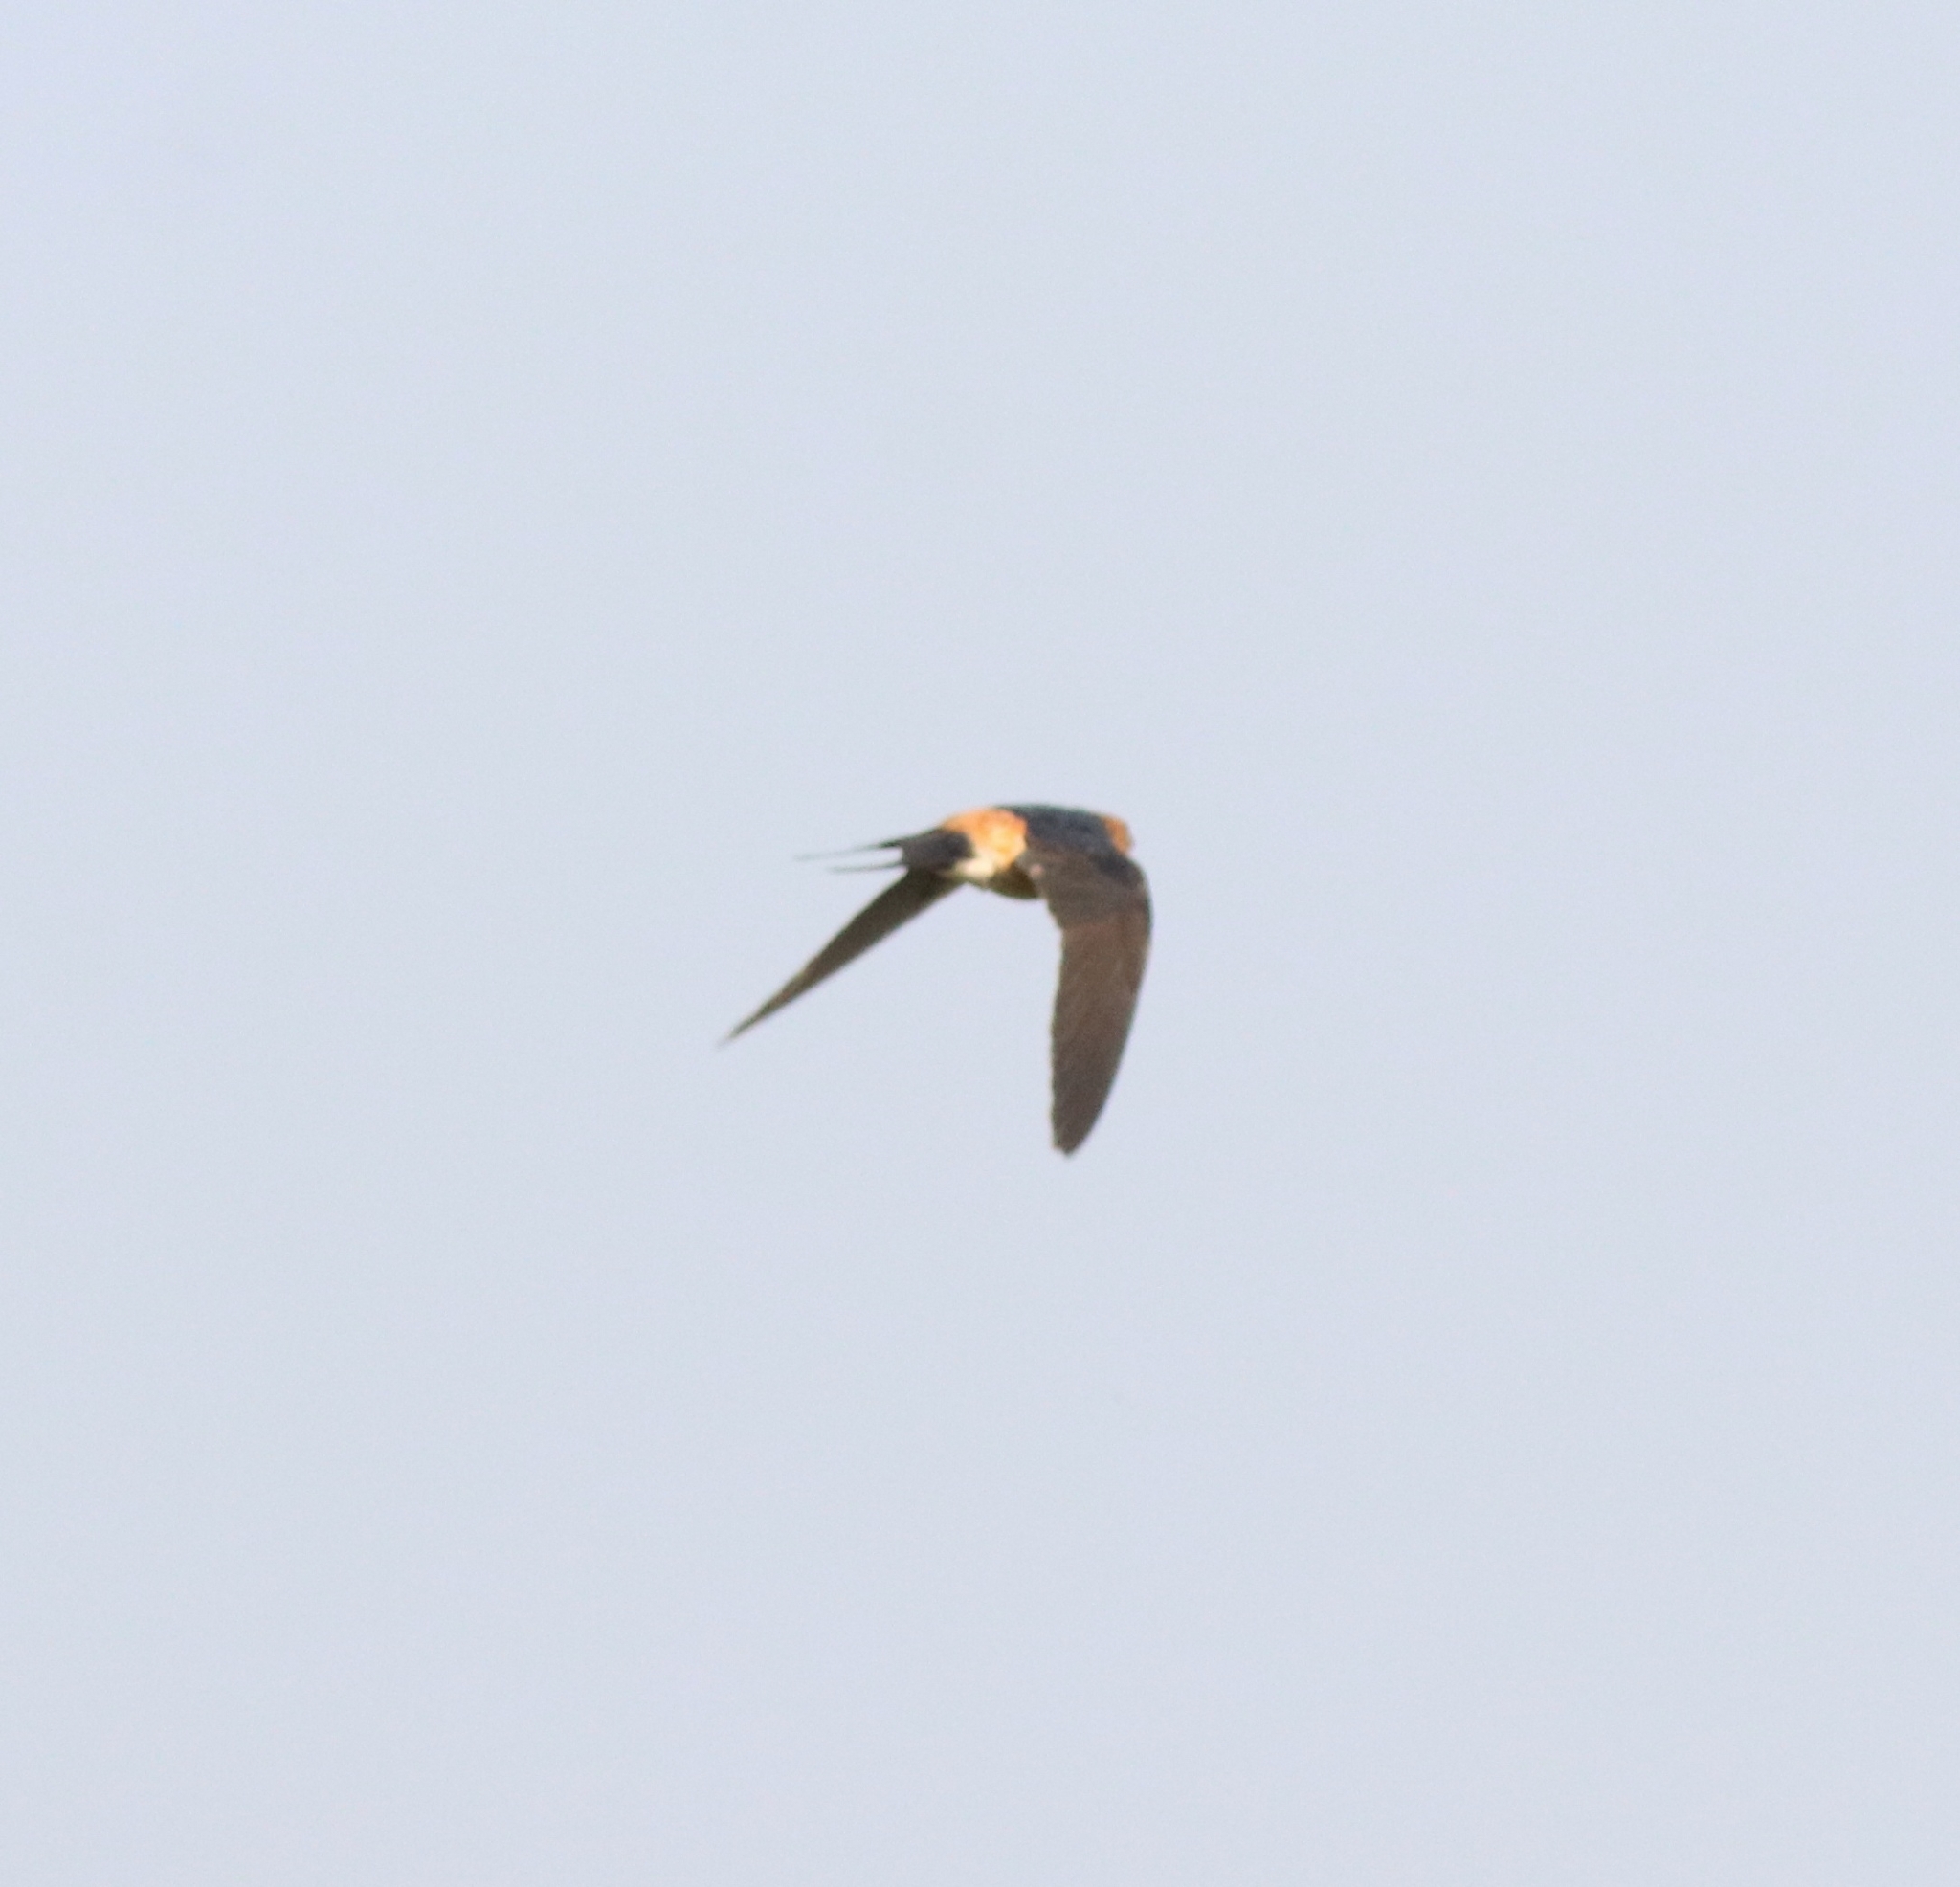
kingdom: Animalia
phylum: Chordata
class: Aves
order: Passeriformes
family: Hirundinidae
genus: Cecropis
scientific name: Cecropis daurica
